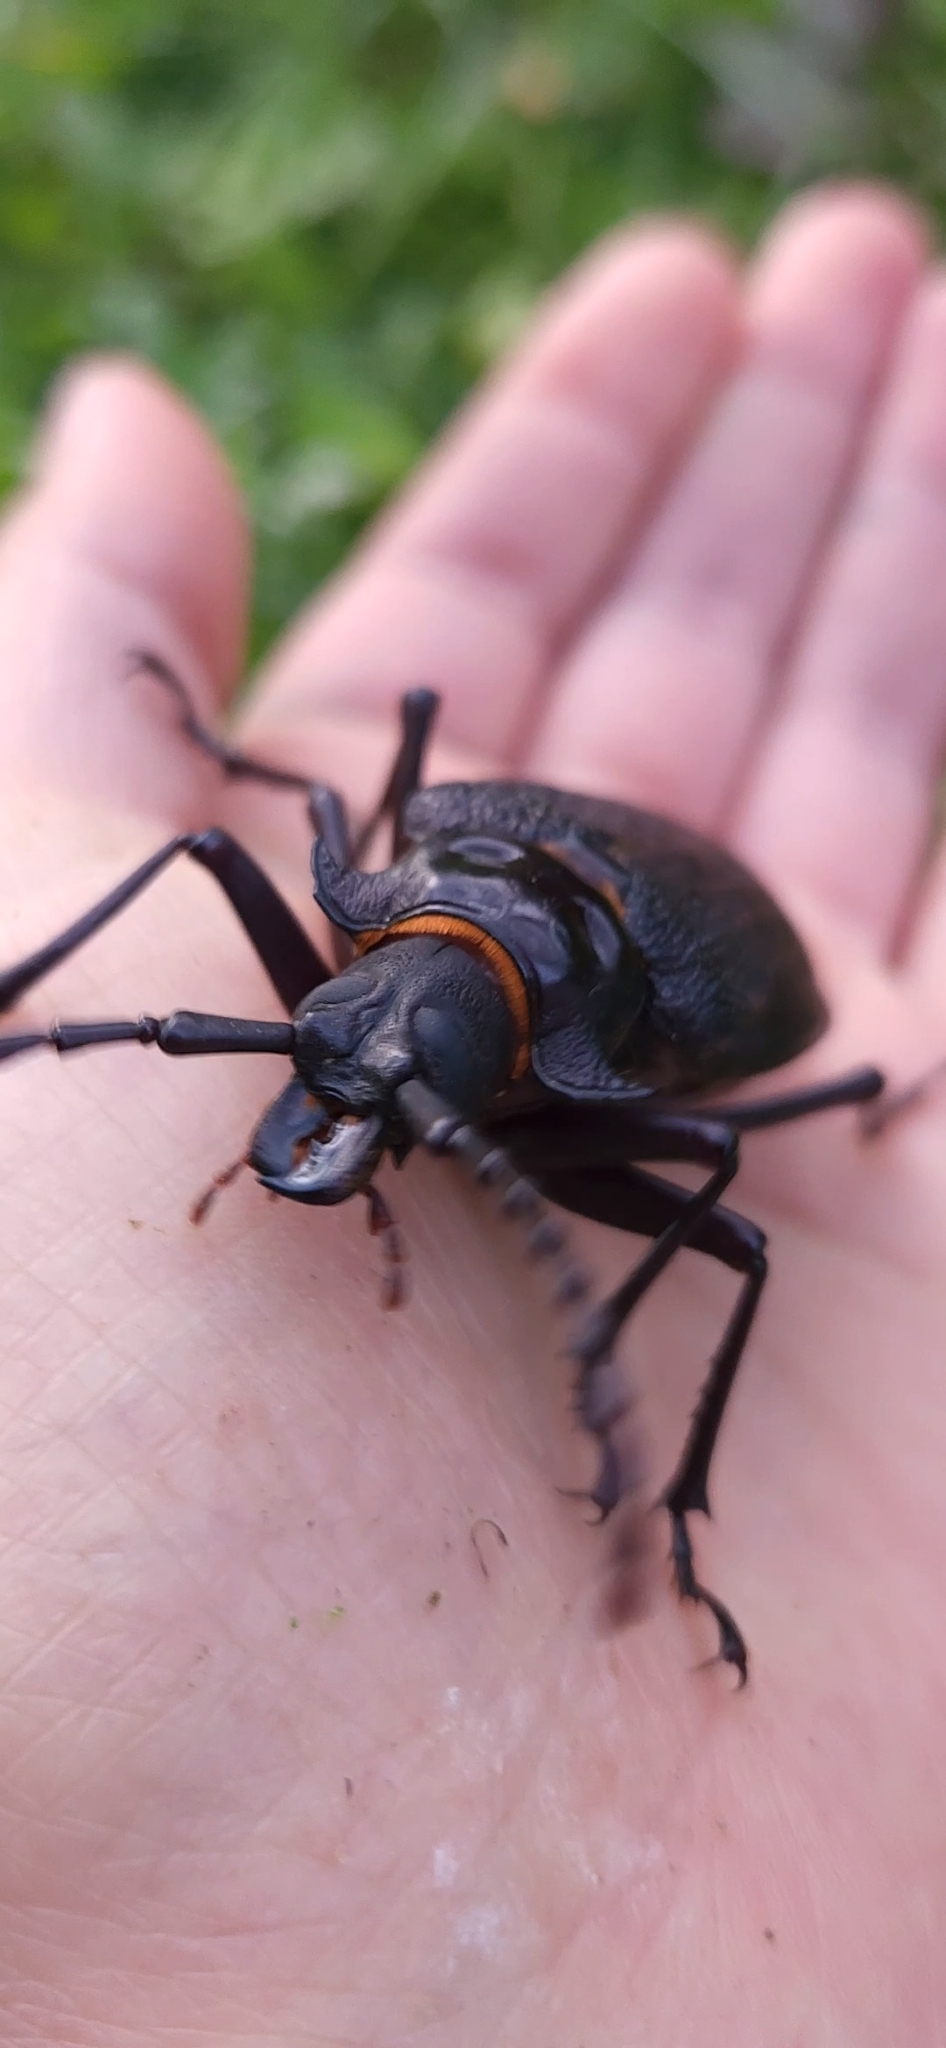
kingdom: Animalia
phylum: Arthropoda
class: Insecta
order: Coleoptera
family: Cerambycidae
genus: Acanthinodera
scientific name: Acanthinodera cumingii
